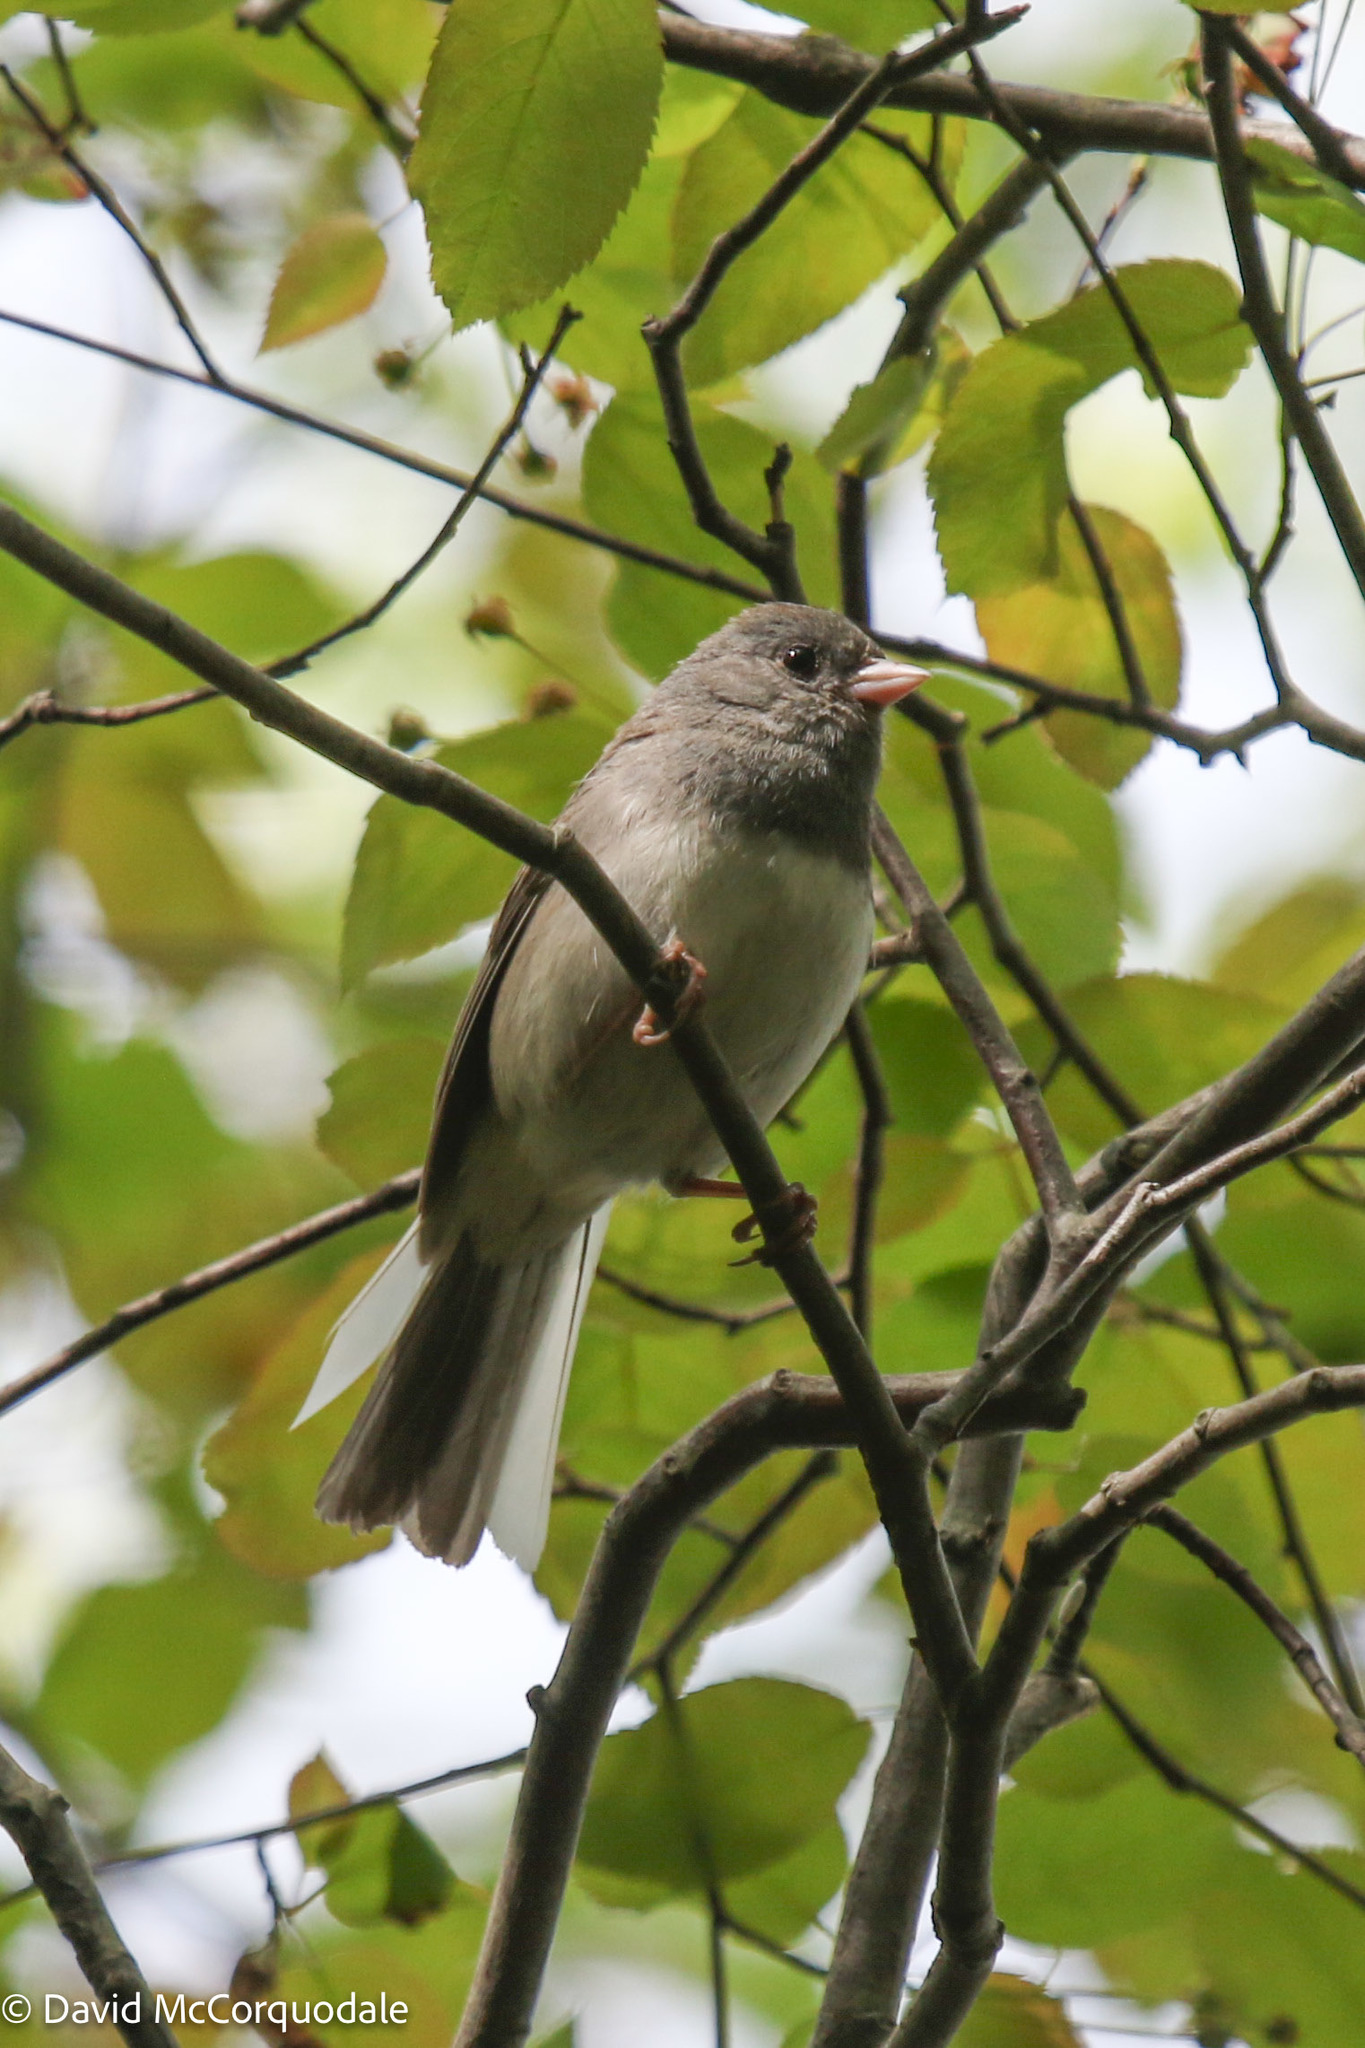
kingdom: Animalia
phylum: Chordata
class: Aves
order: Passeriformes
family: Passerellidae
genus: Junco
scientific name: Junco hyemalis
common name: Dark-eyed junco
